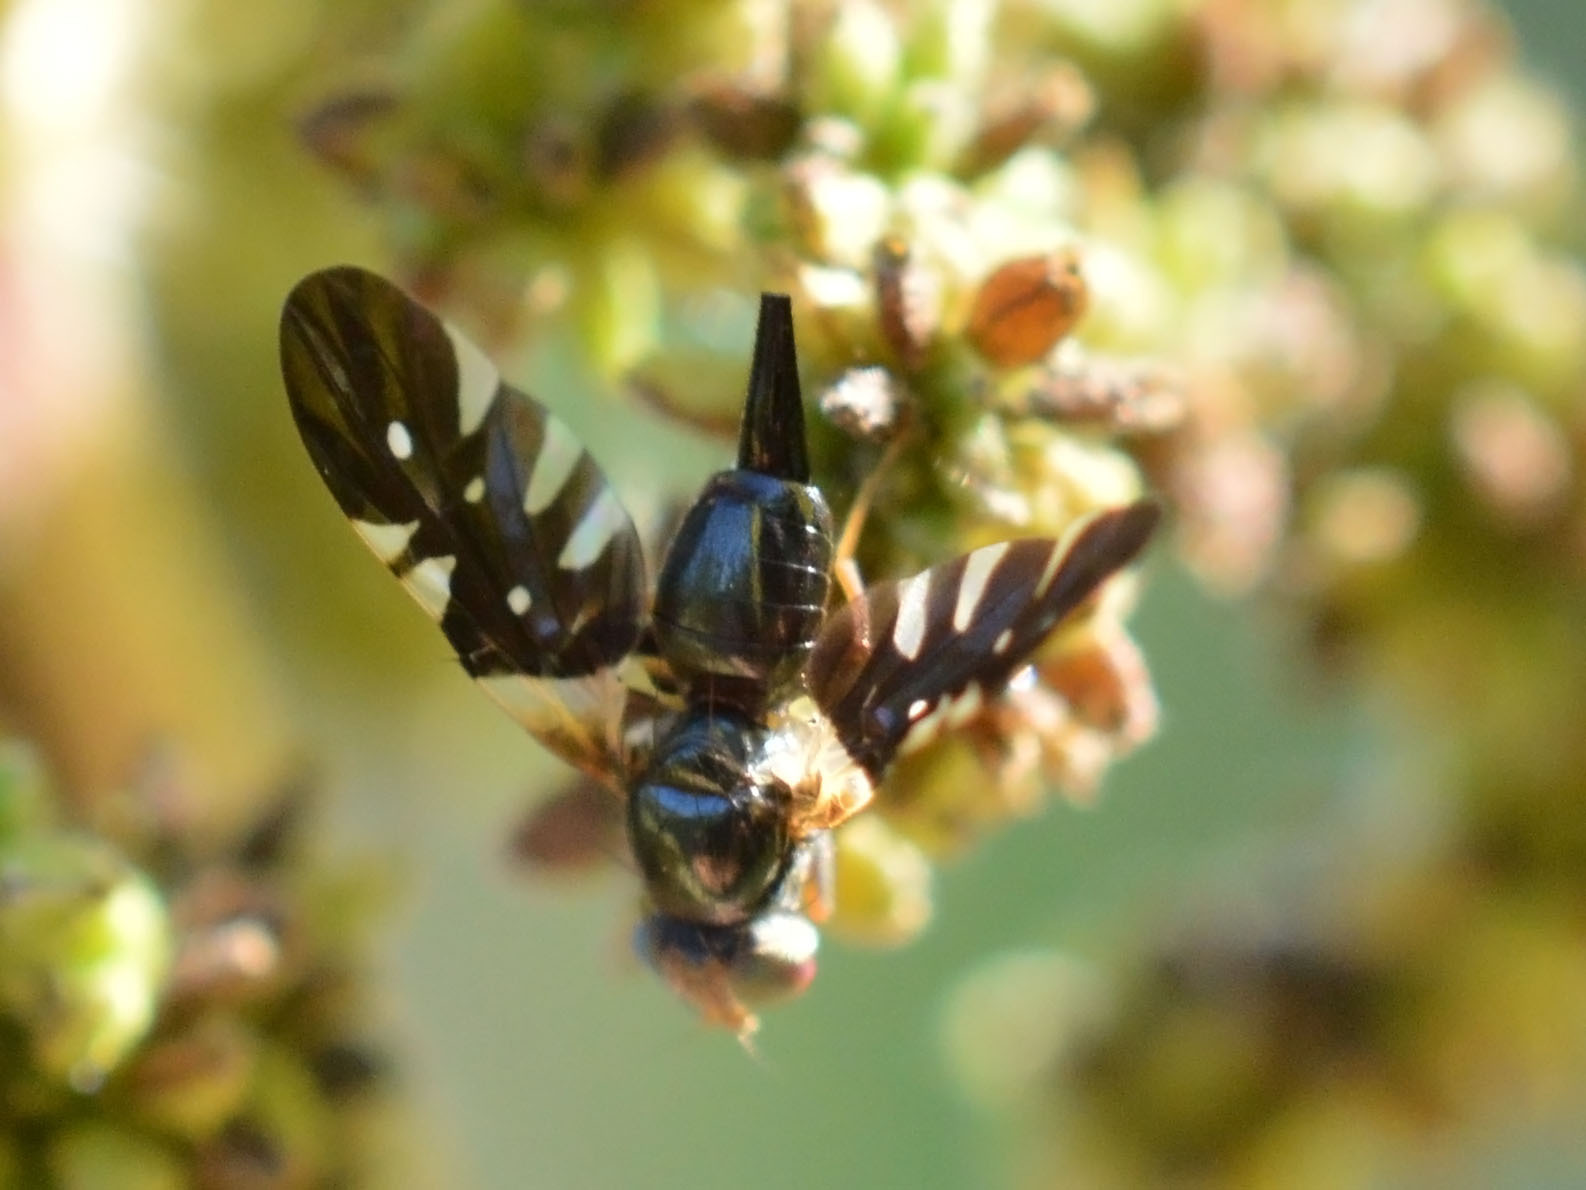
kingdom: Animalia
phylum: Arthropoda
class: Insecta
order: Diptera
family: Tephritidae
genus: Aciura
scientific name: Aciura coryli
